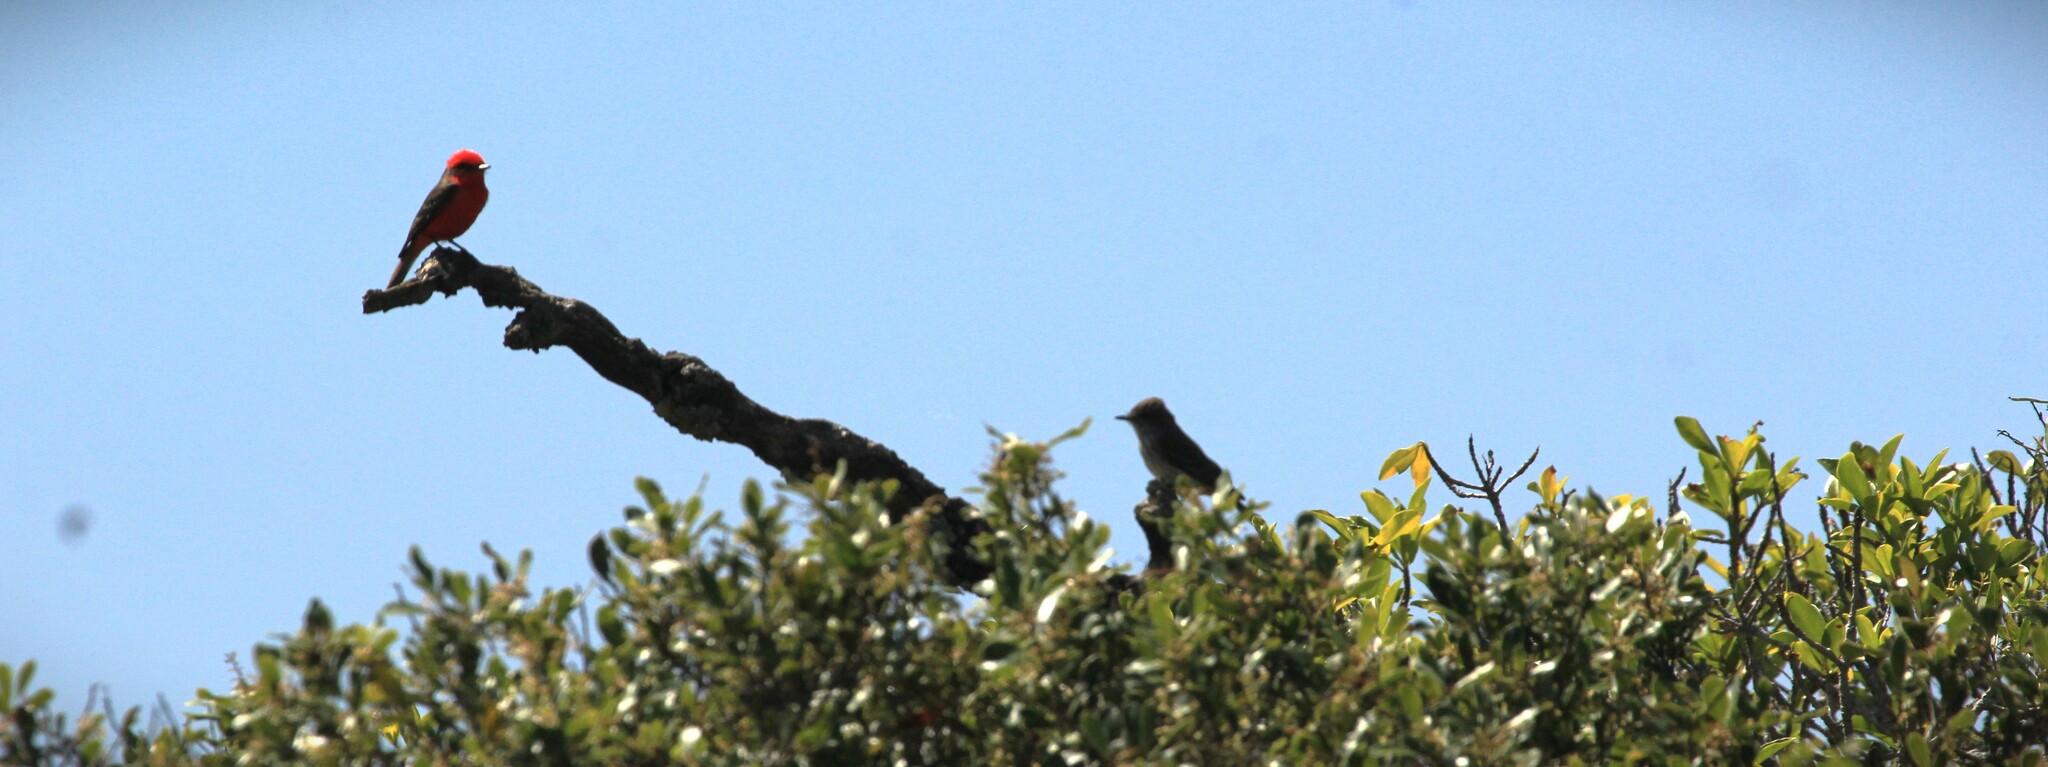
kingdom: Animalia
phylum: Chordata
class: Aves
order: Passeriformes
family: Tyrannidae
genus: Pyrocephalus
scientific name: Pyrocephalus rubinus
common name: Vermilion flycatcher
